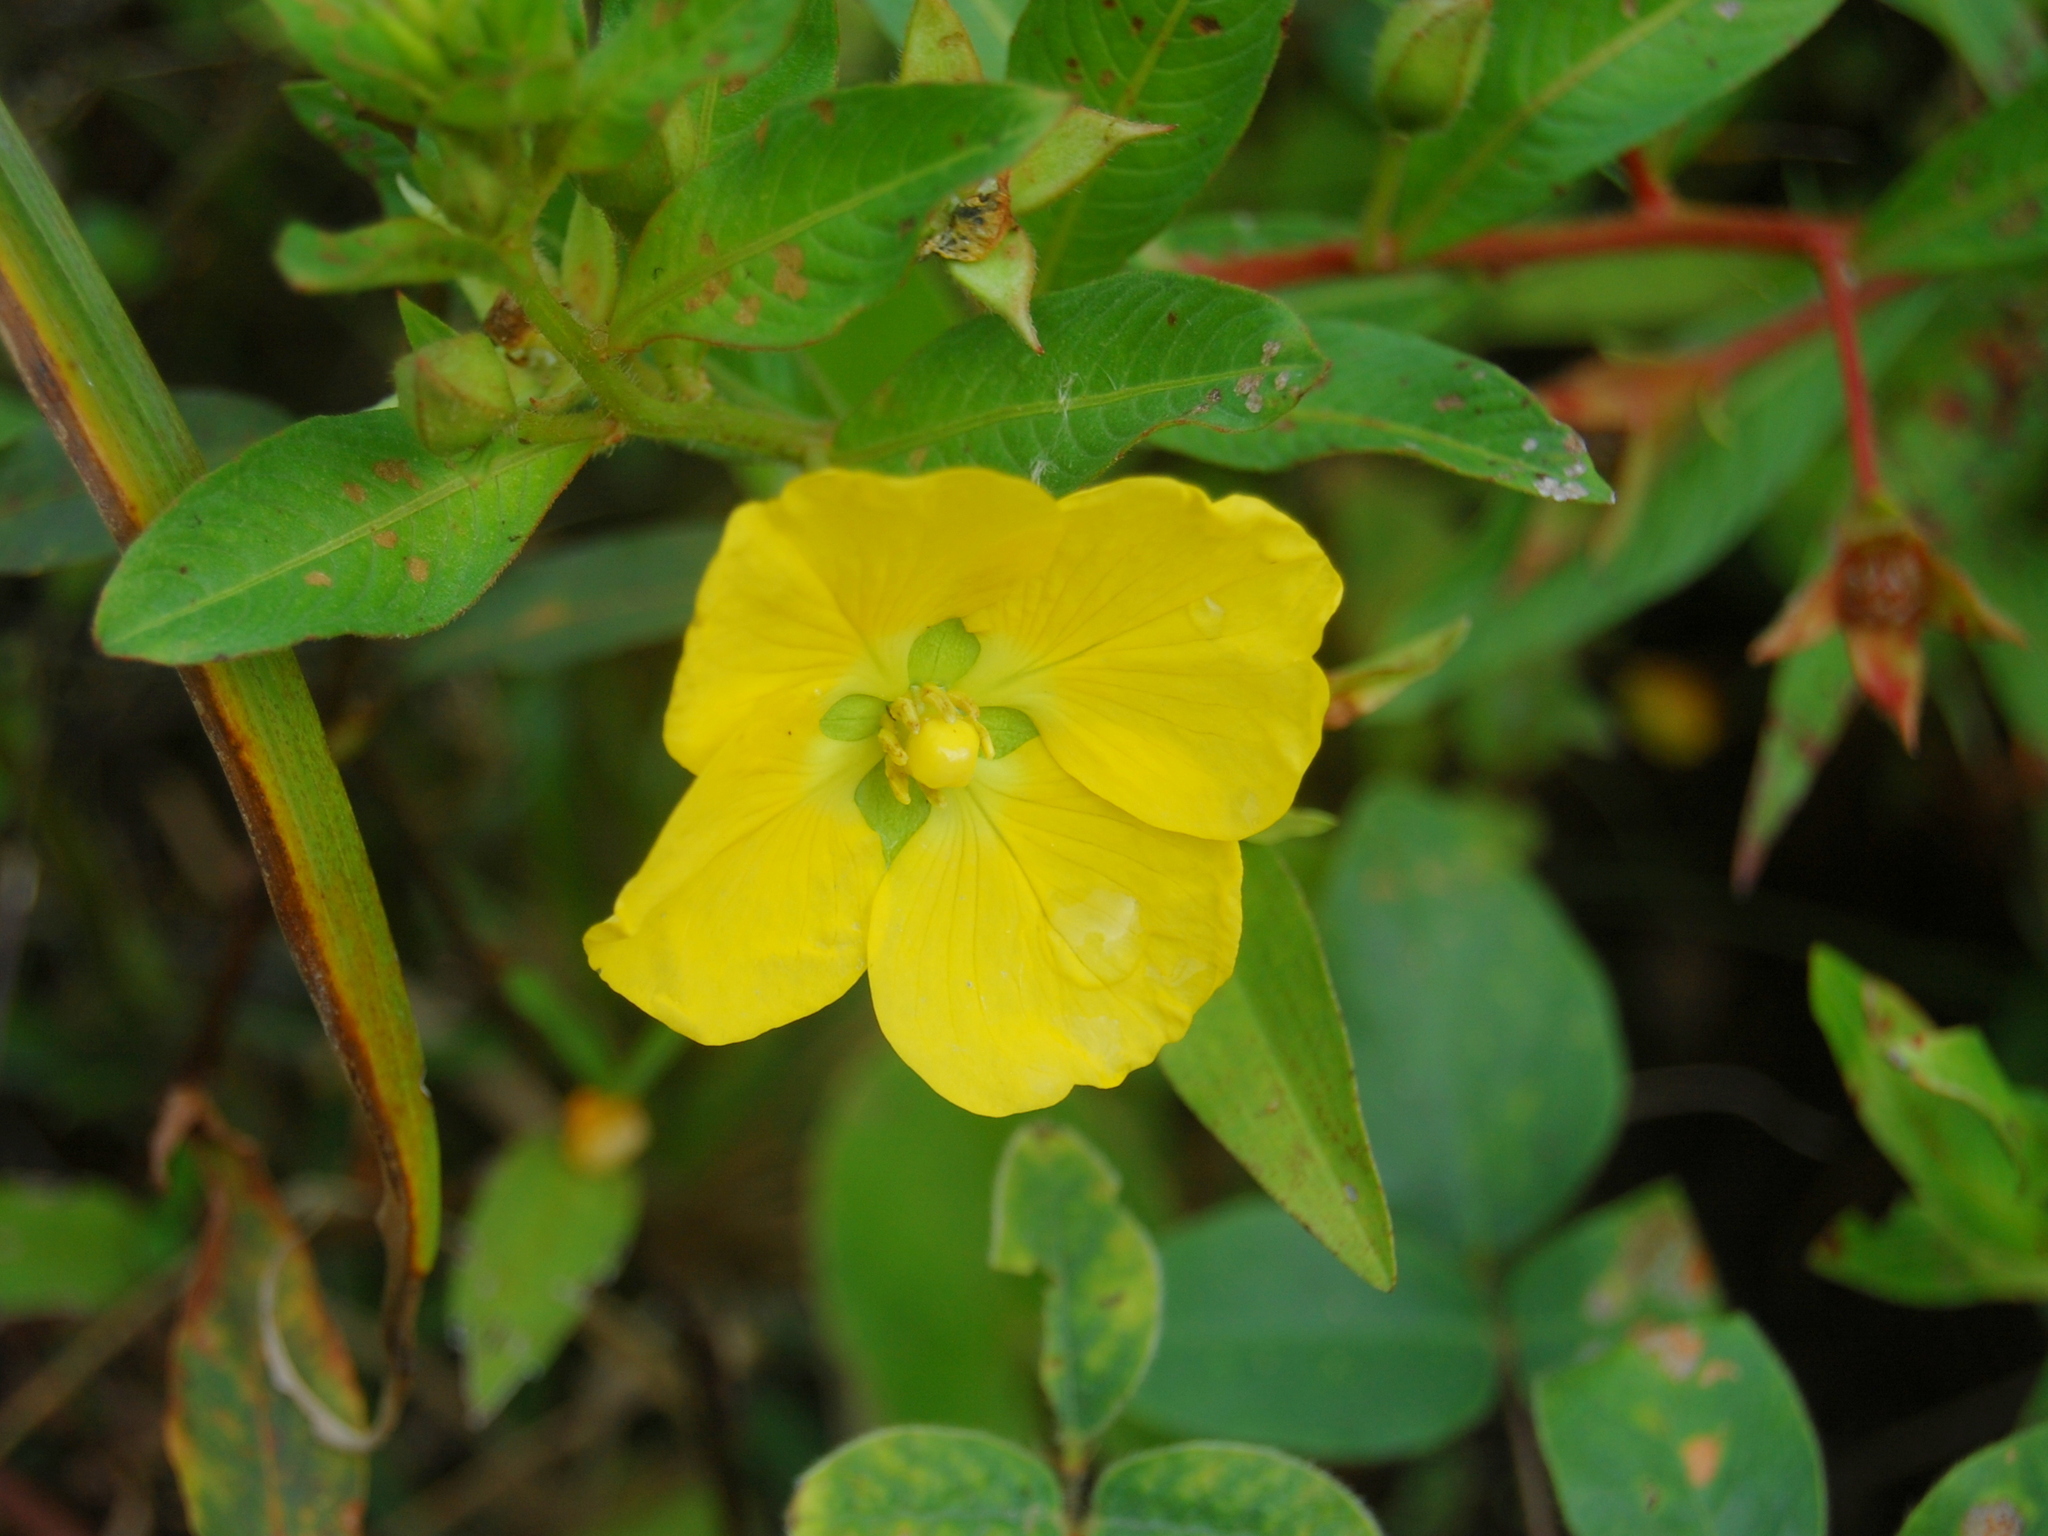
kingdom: Plantae
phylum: Tracheophyta
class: Magnoliopsida
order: Myrtales
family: Onagraceae
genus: Ludwigia
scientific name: Ludwigia peruviana
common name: Peruvian primrose-willow
